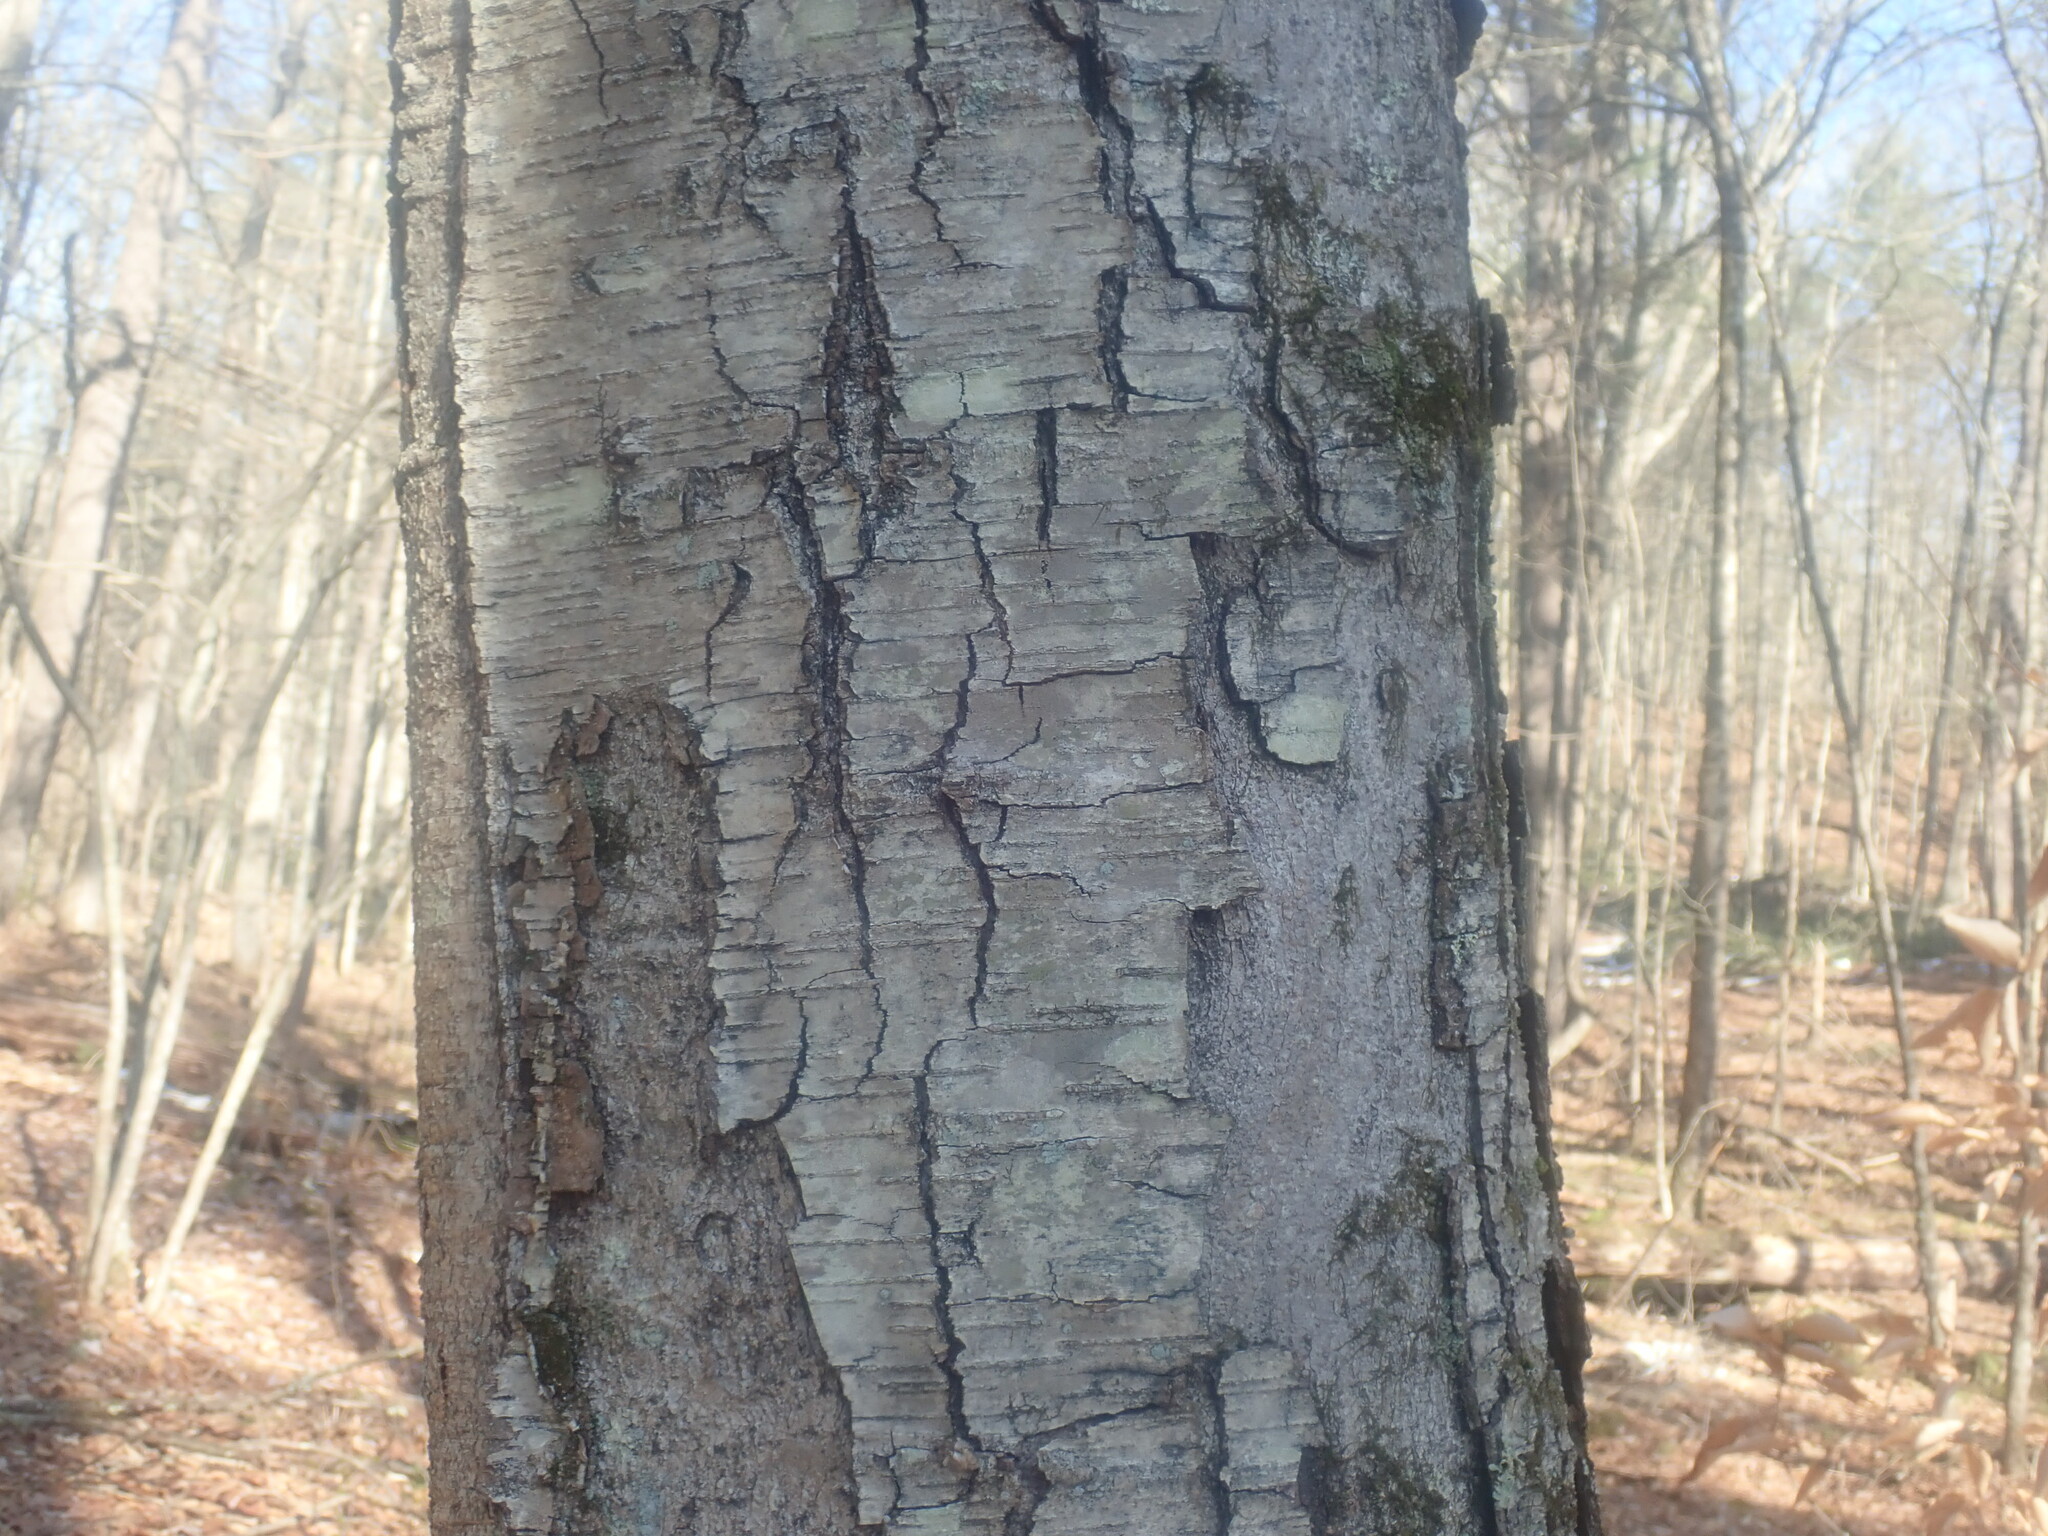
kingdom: Plantae
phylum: Tracheophyta
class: Magnoliopsida
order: Fagales
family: Betulaceae
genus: Betula
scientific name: Betula lenta
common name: Black birch
